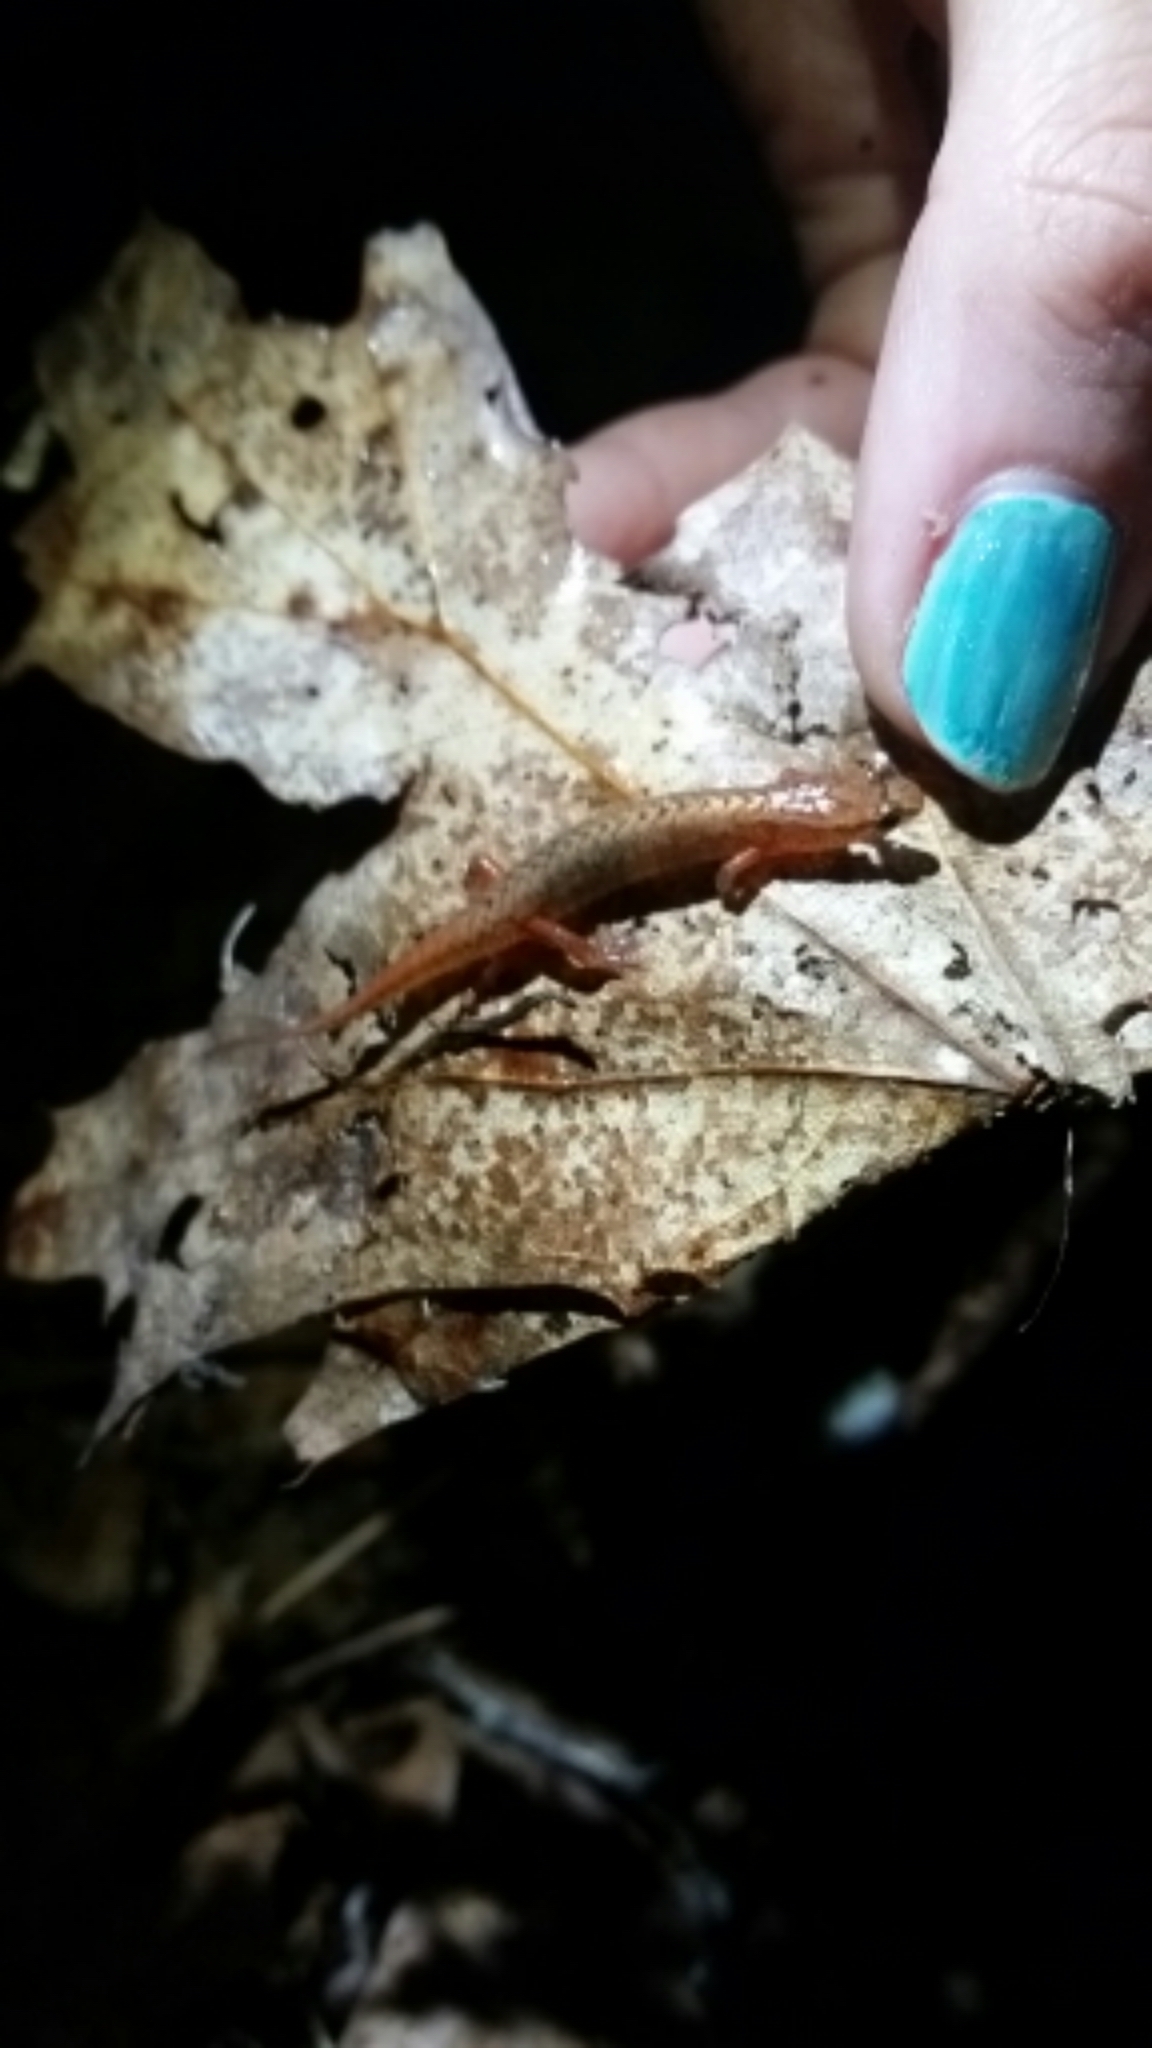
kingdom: Animalia
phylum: Chordata
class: Amphibia
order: Caudata
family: Plethodontidae
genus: Desmognathus
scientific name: Desmognathus wrighti
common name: Pygmy salamander
